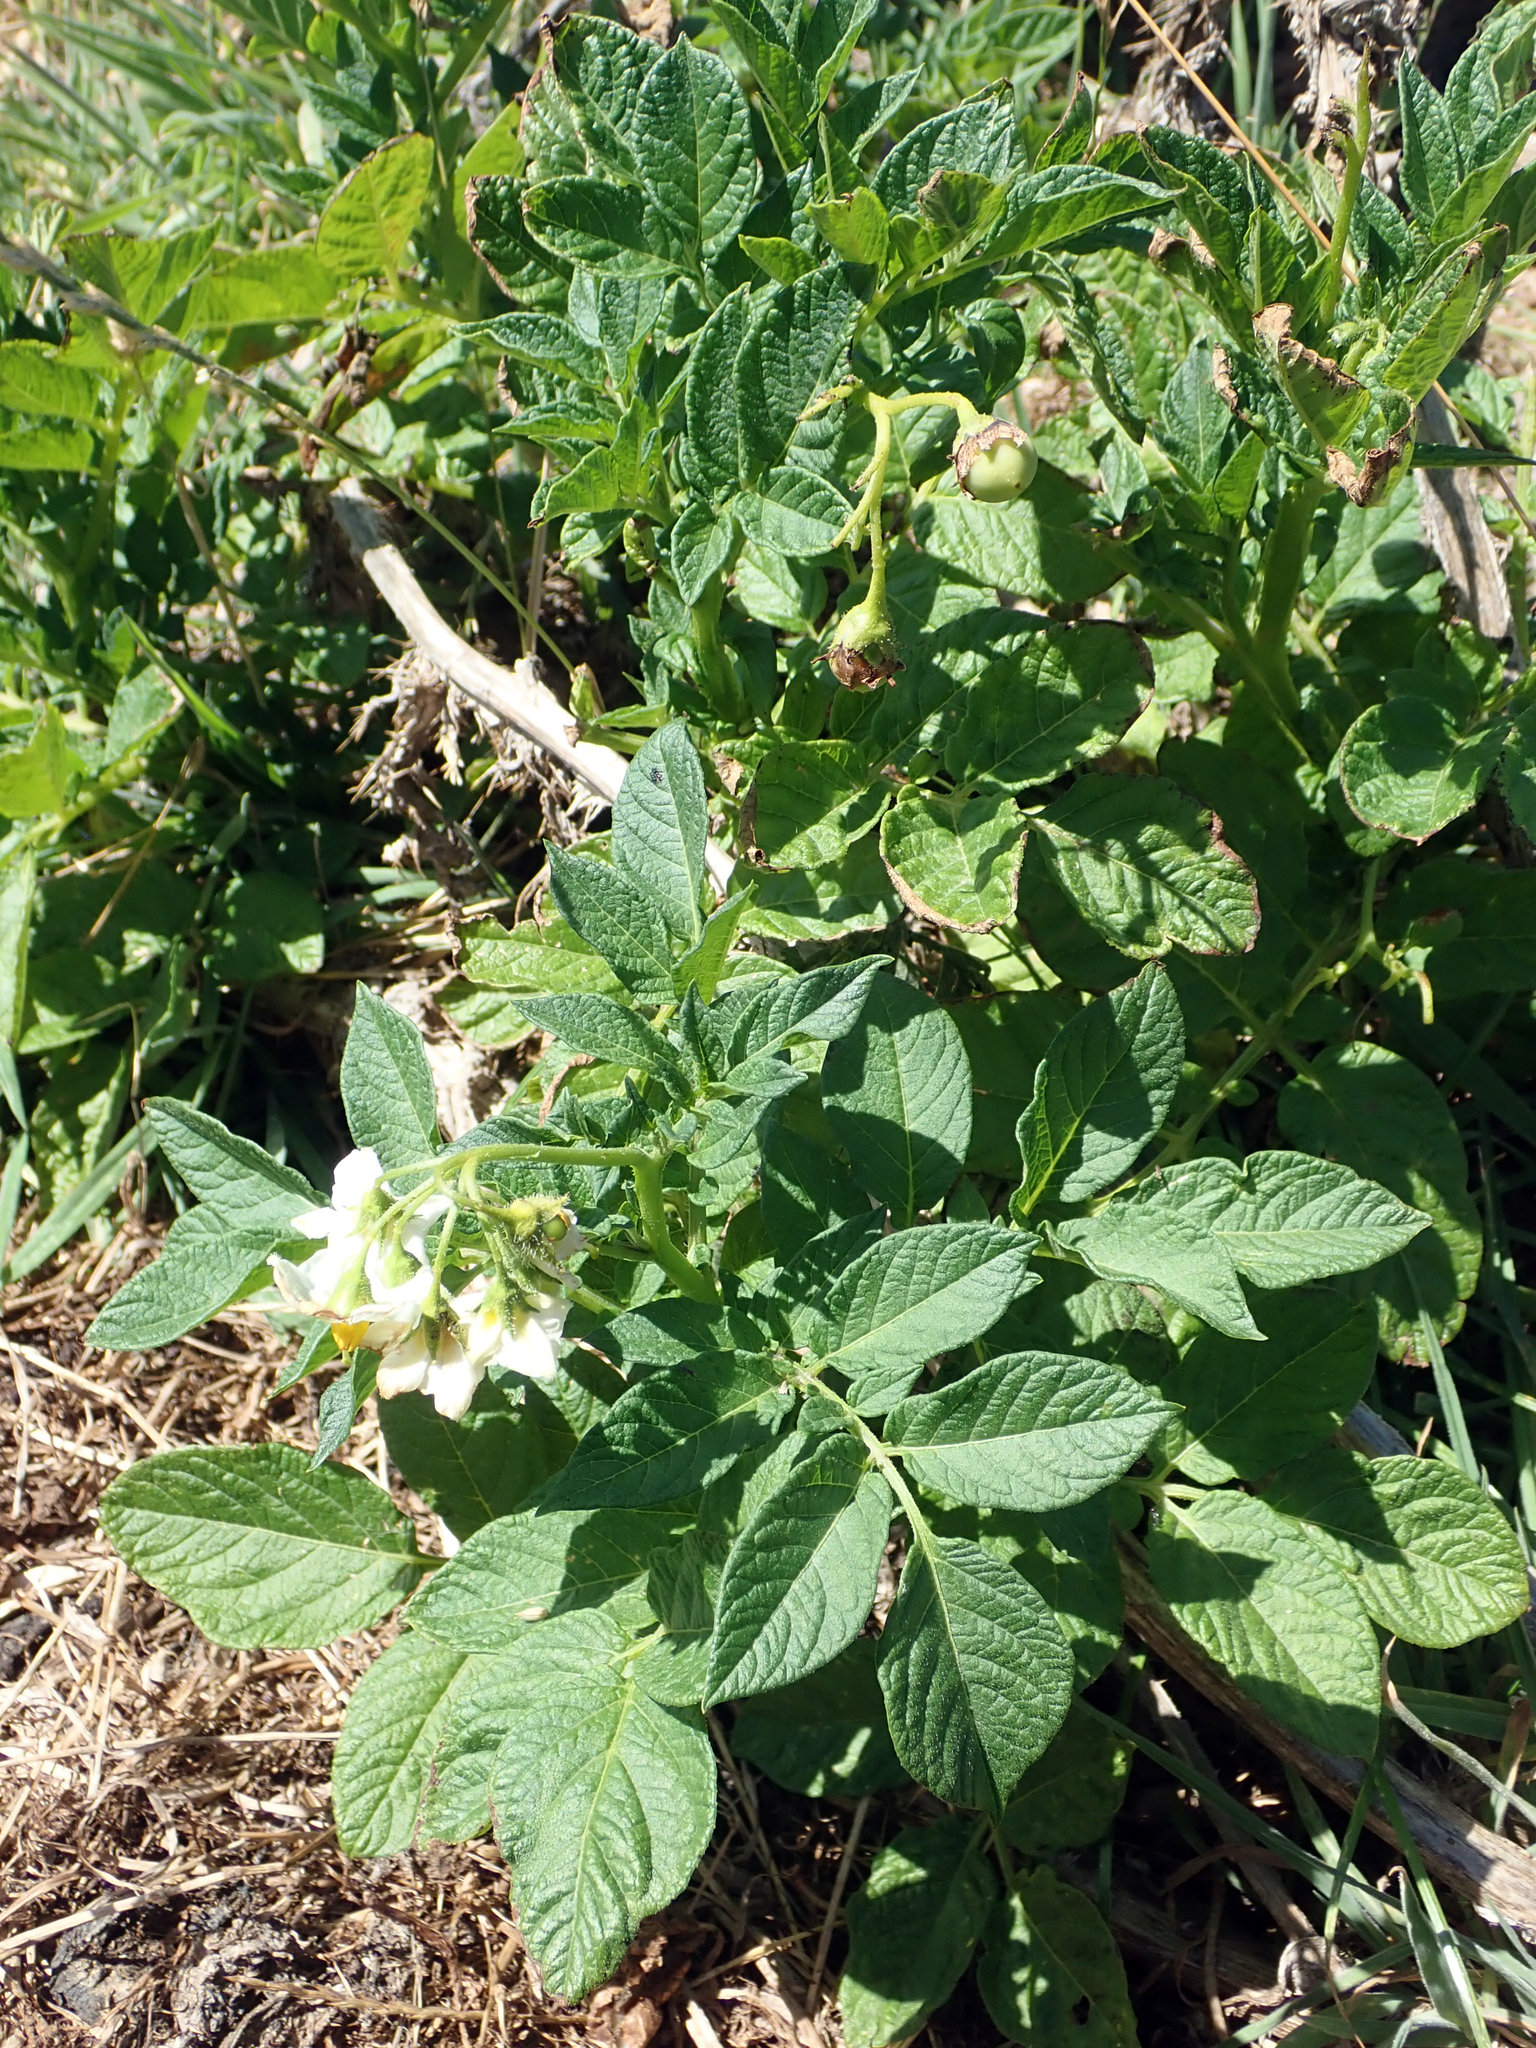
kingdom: Plantae
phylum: Tracheophyta
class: Magnoliopsida
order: Solanales
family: Solanaceae
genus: Solanum
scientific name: Solanum tuberosum
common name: Potato
